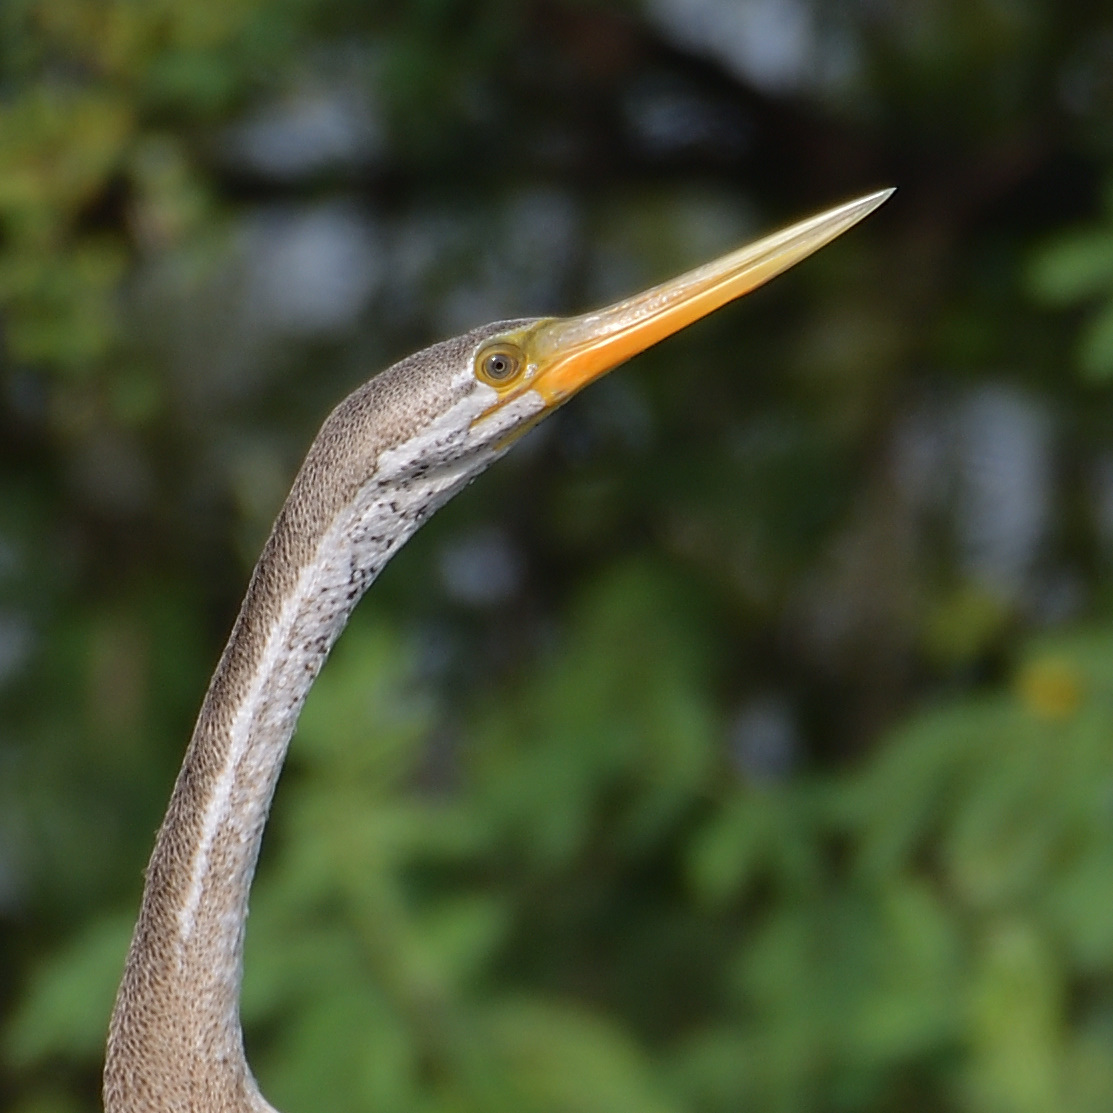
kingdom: Animalia
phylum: Chordata
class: Aves
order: Suliformes
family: Anhingidae
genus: Anhinga
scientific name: Anhinga melanogaster
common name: Oriental darter
